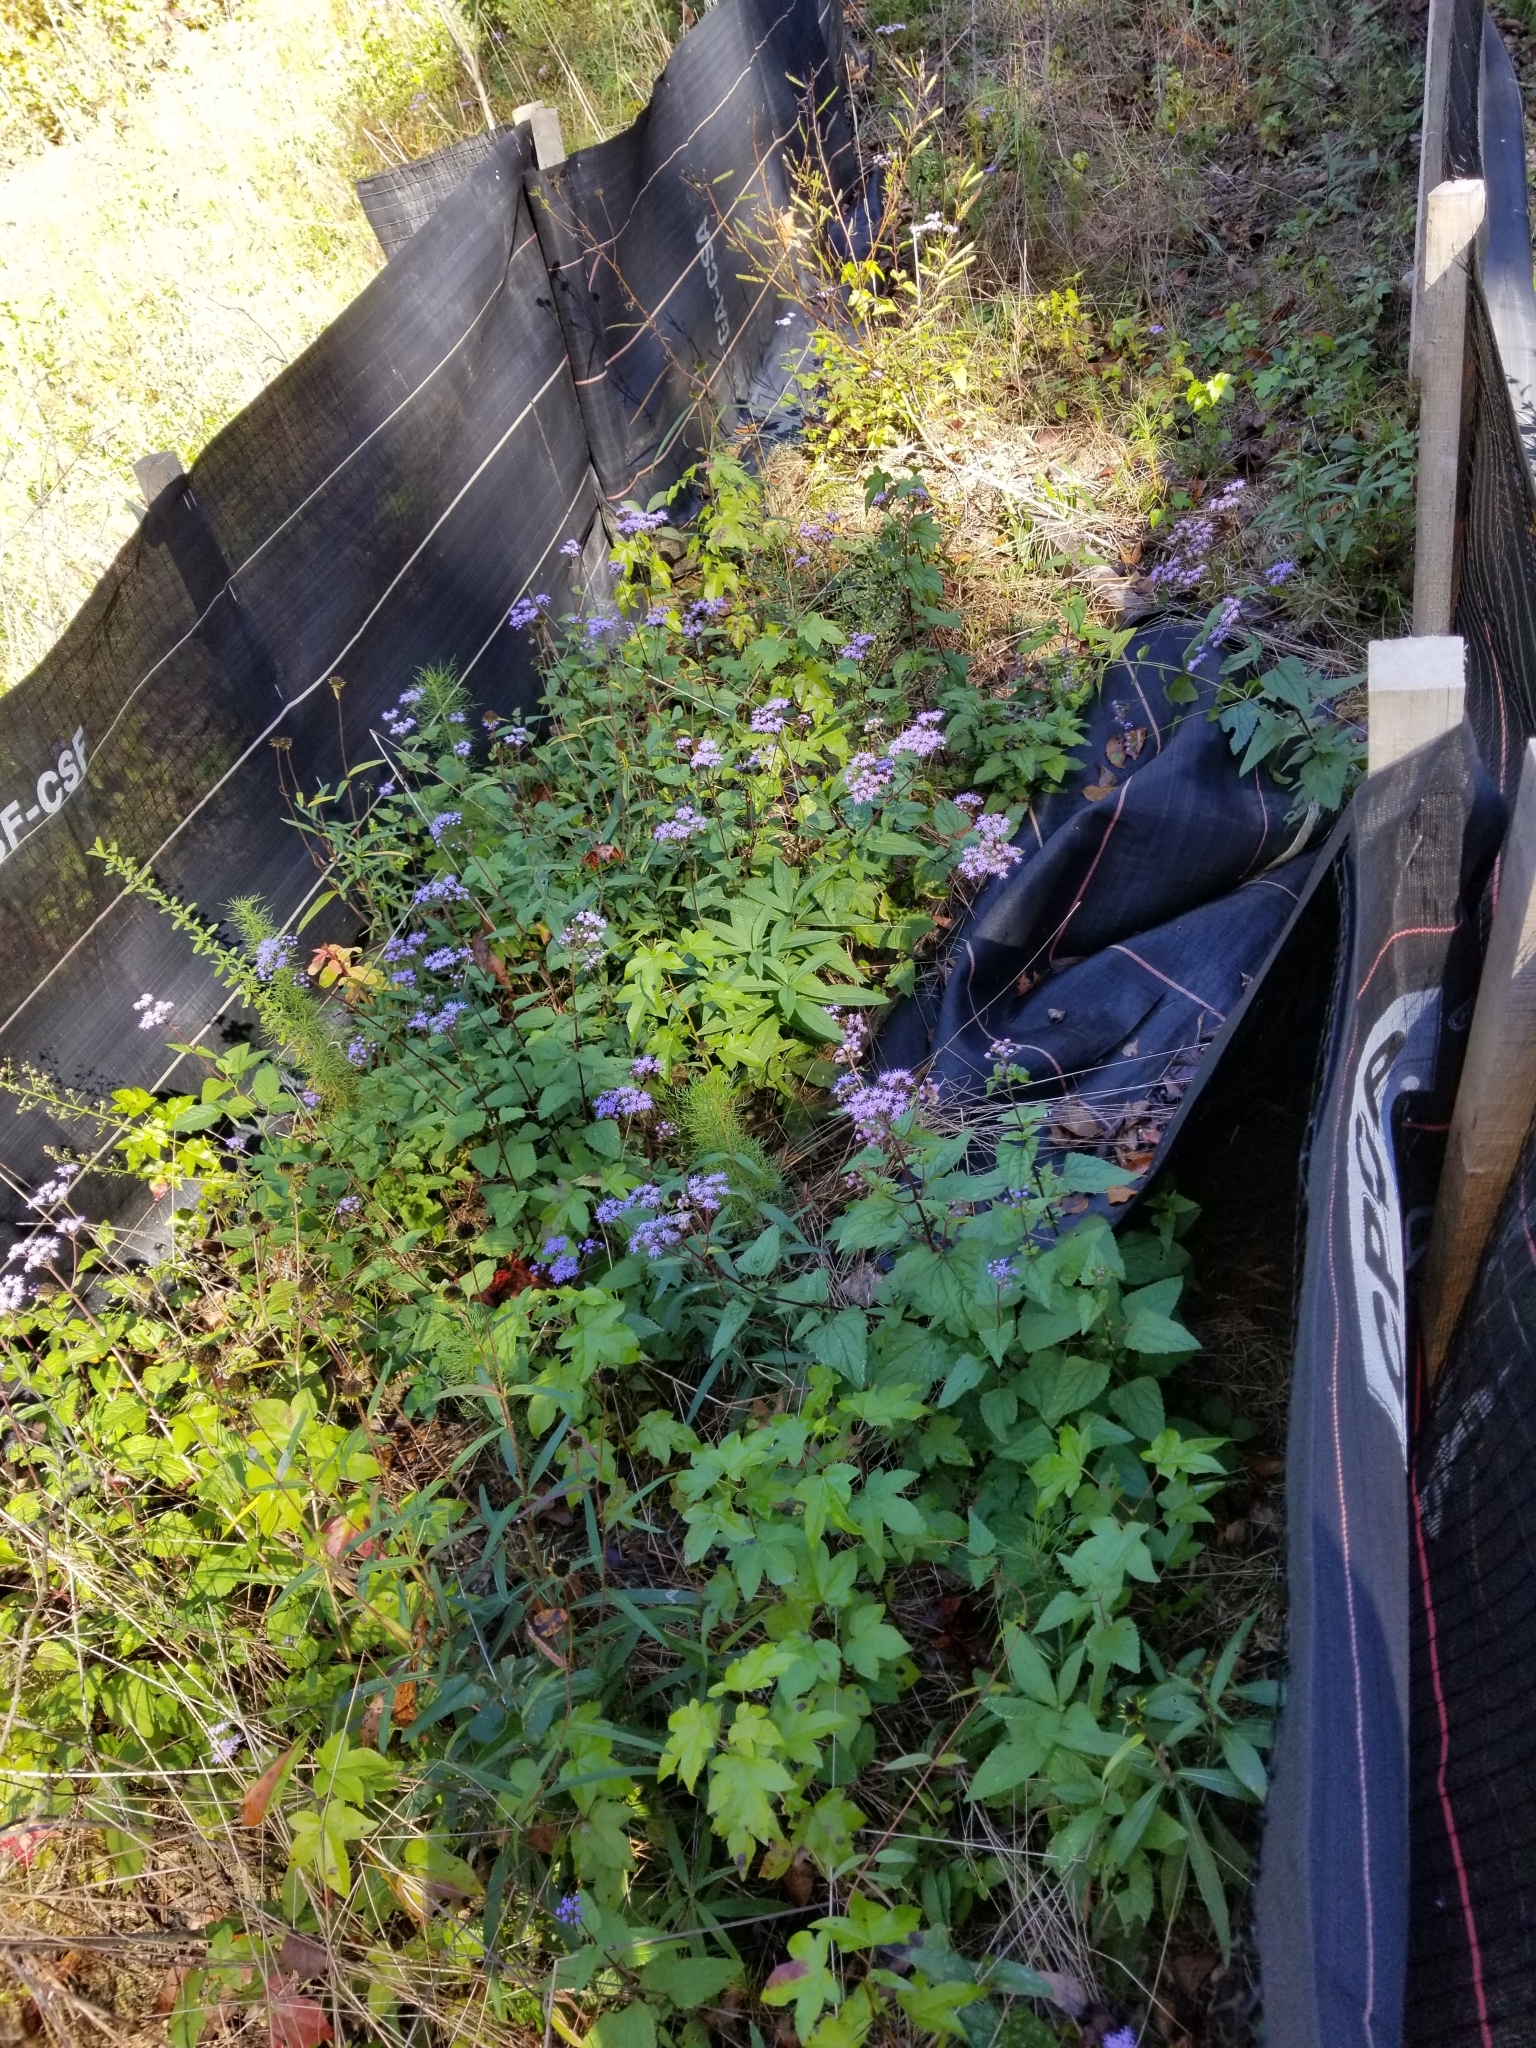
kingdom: Plantae
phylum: Tracheophyta
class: Magnoliopsida
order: Asterales
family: Asteraceae
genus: Conoclinium
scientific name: Conoclinium coelestinum
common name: Blue mistflower
